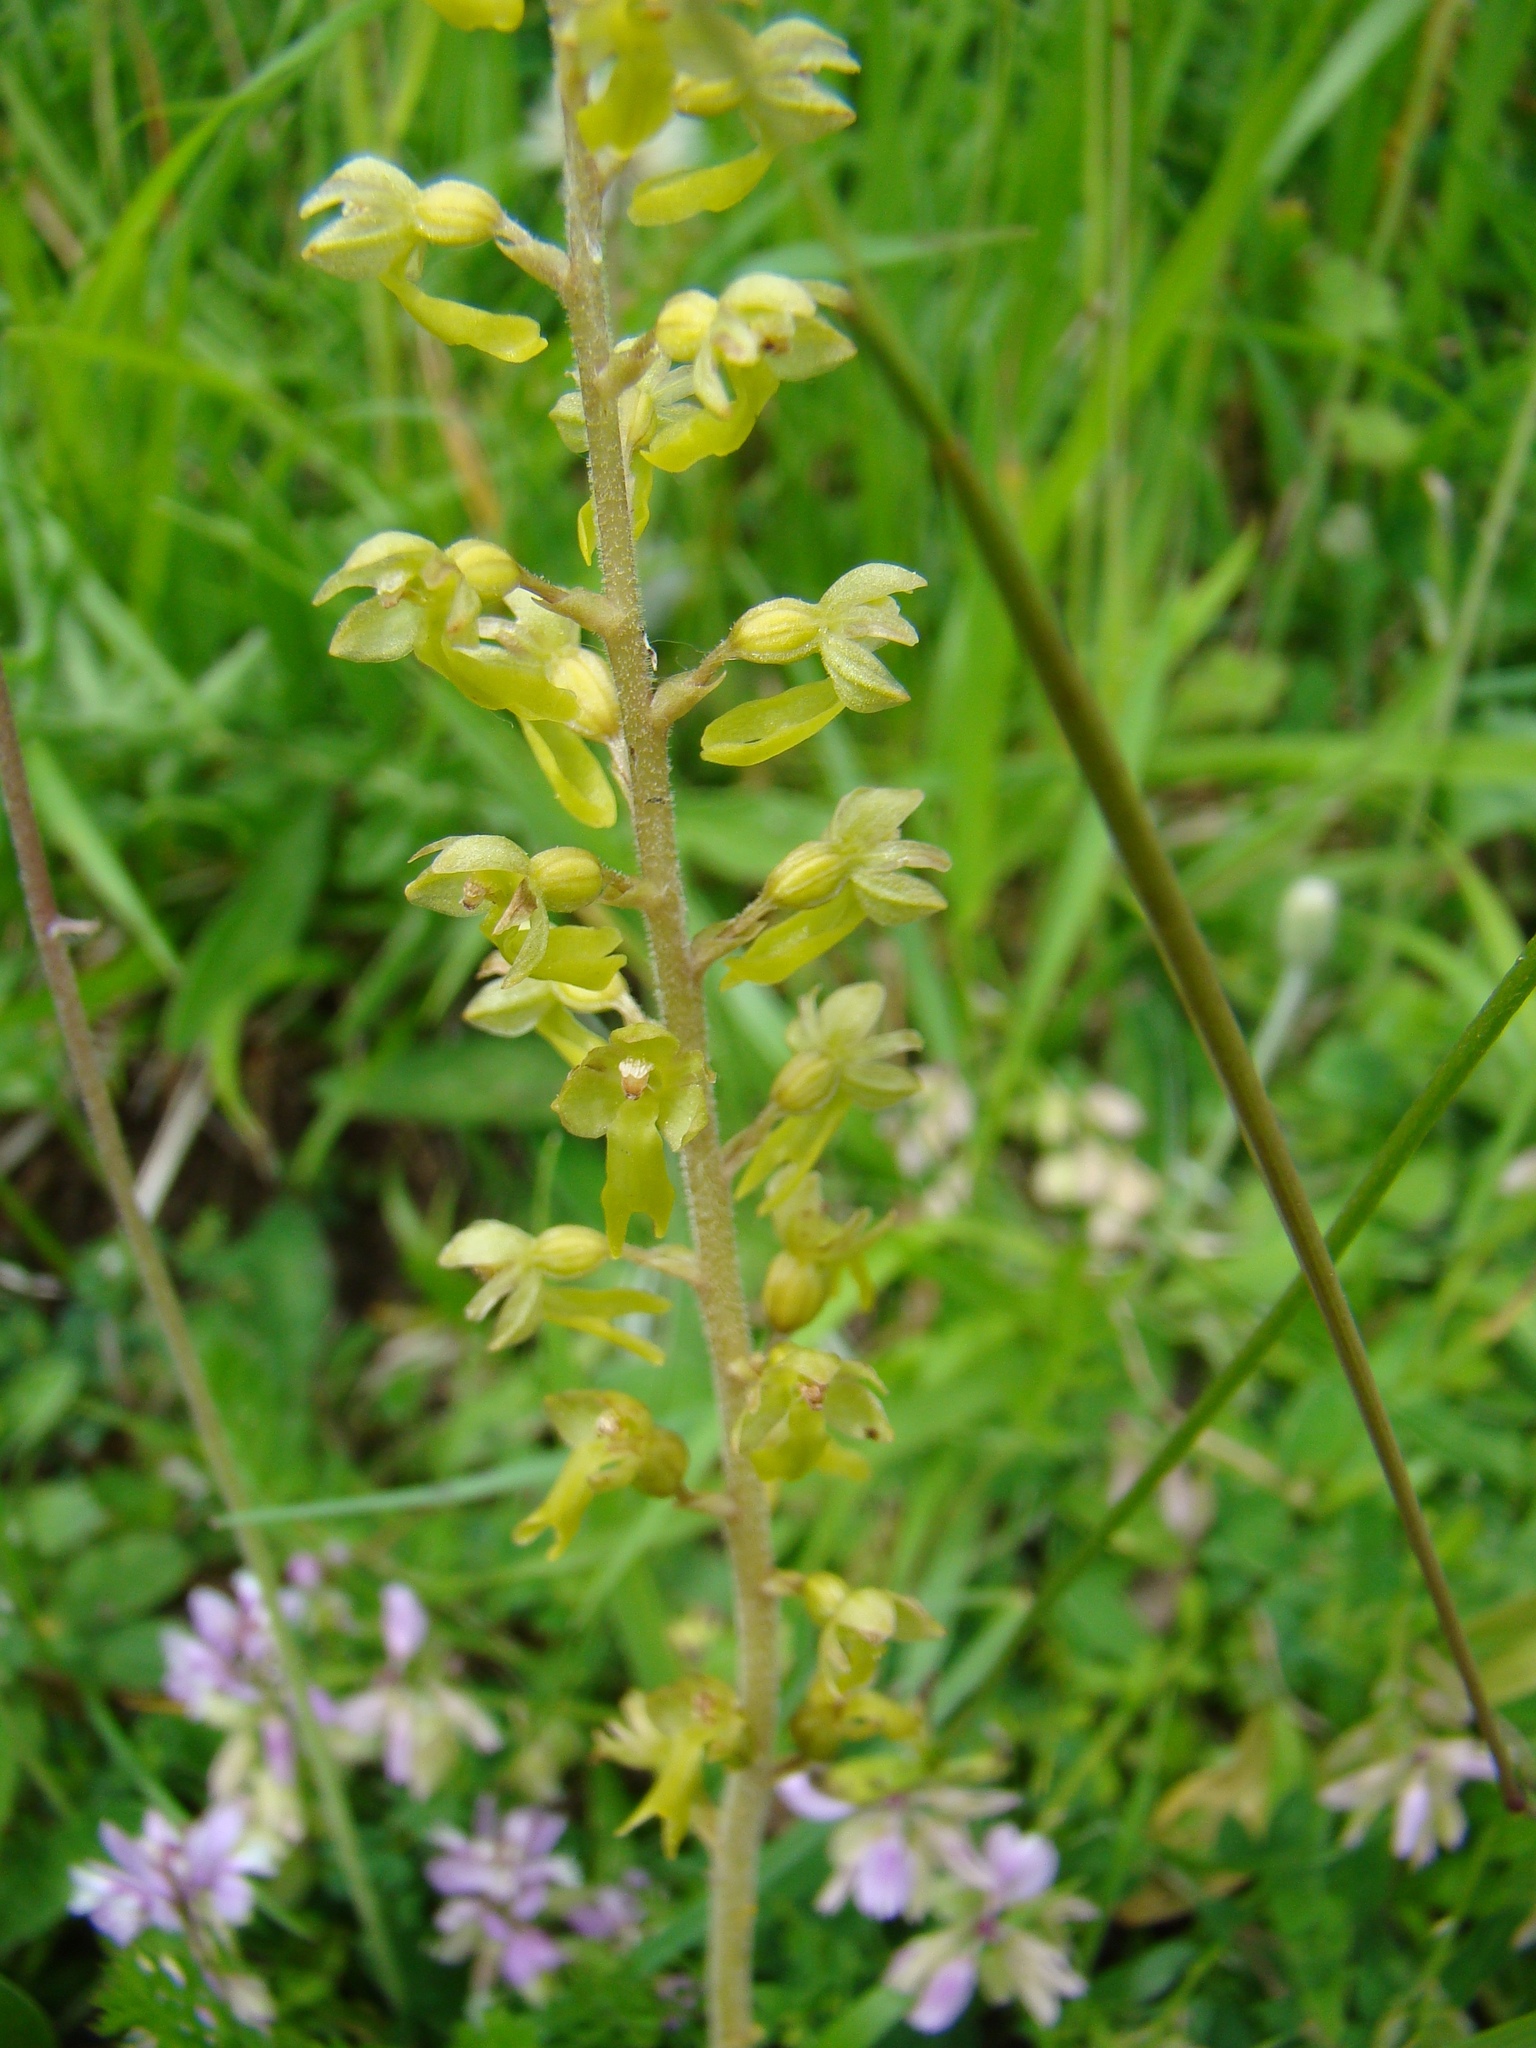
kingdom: Plantae
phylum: Tracheophyta
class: Liliopsida
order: Asparagales
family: Orchidaceae
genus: Neottia
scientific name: Neottia ovata
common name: Common twayblade
